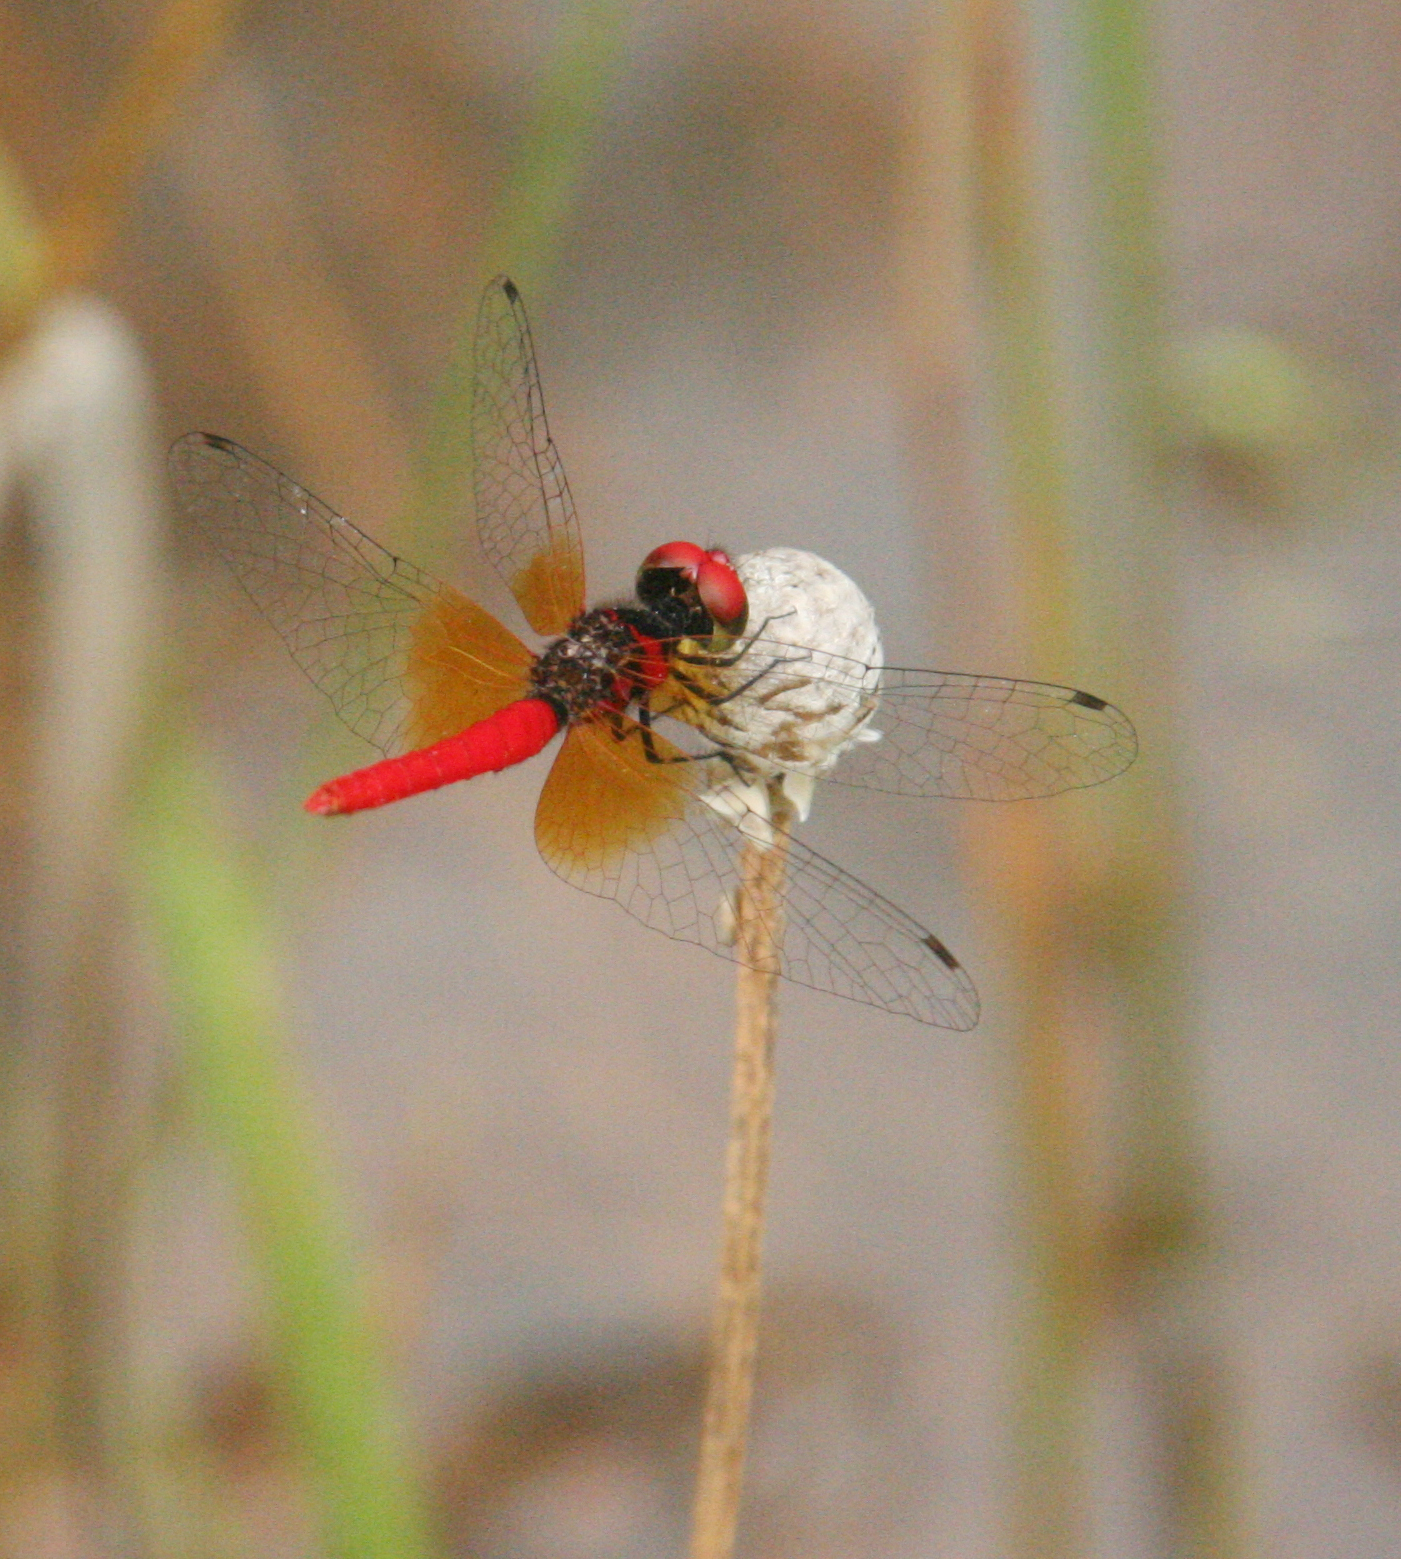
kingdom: Animalia
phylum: Arthropoda
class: Insecta
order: Odonata
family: Libellulidae
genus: Nannophya
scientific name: Nannophya pygmaea
